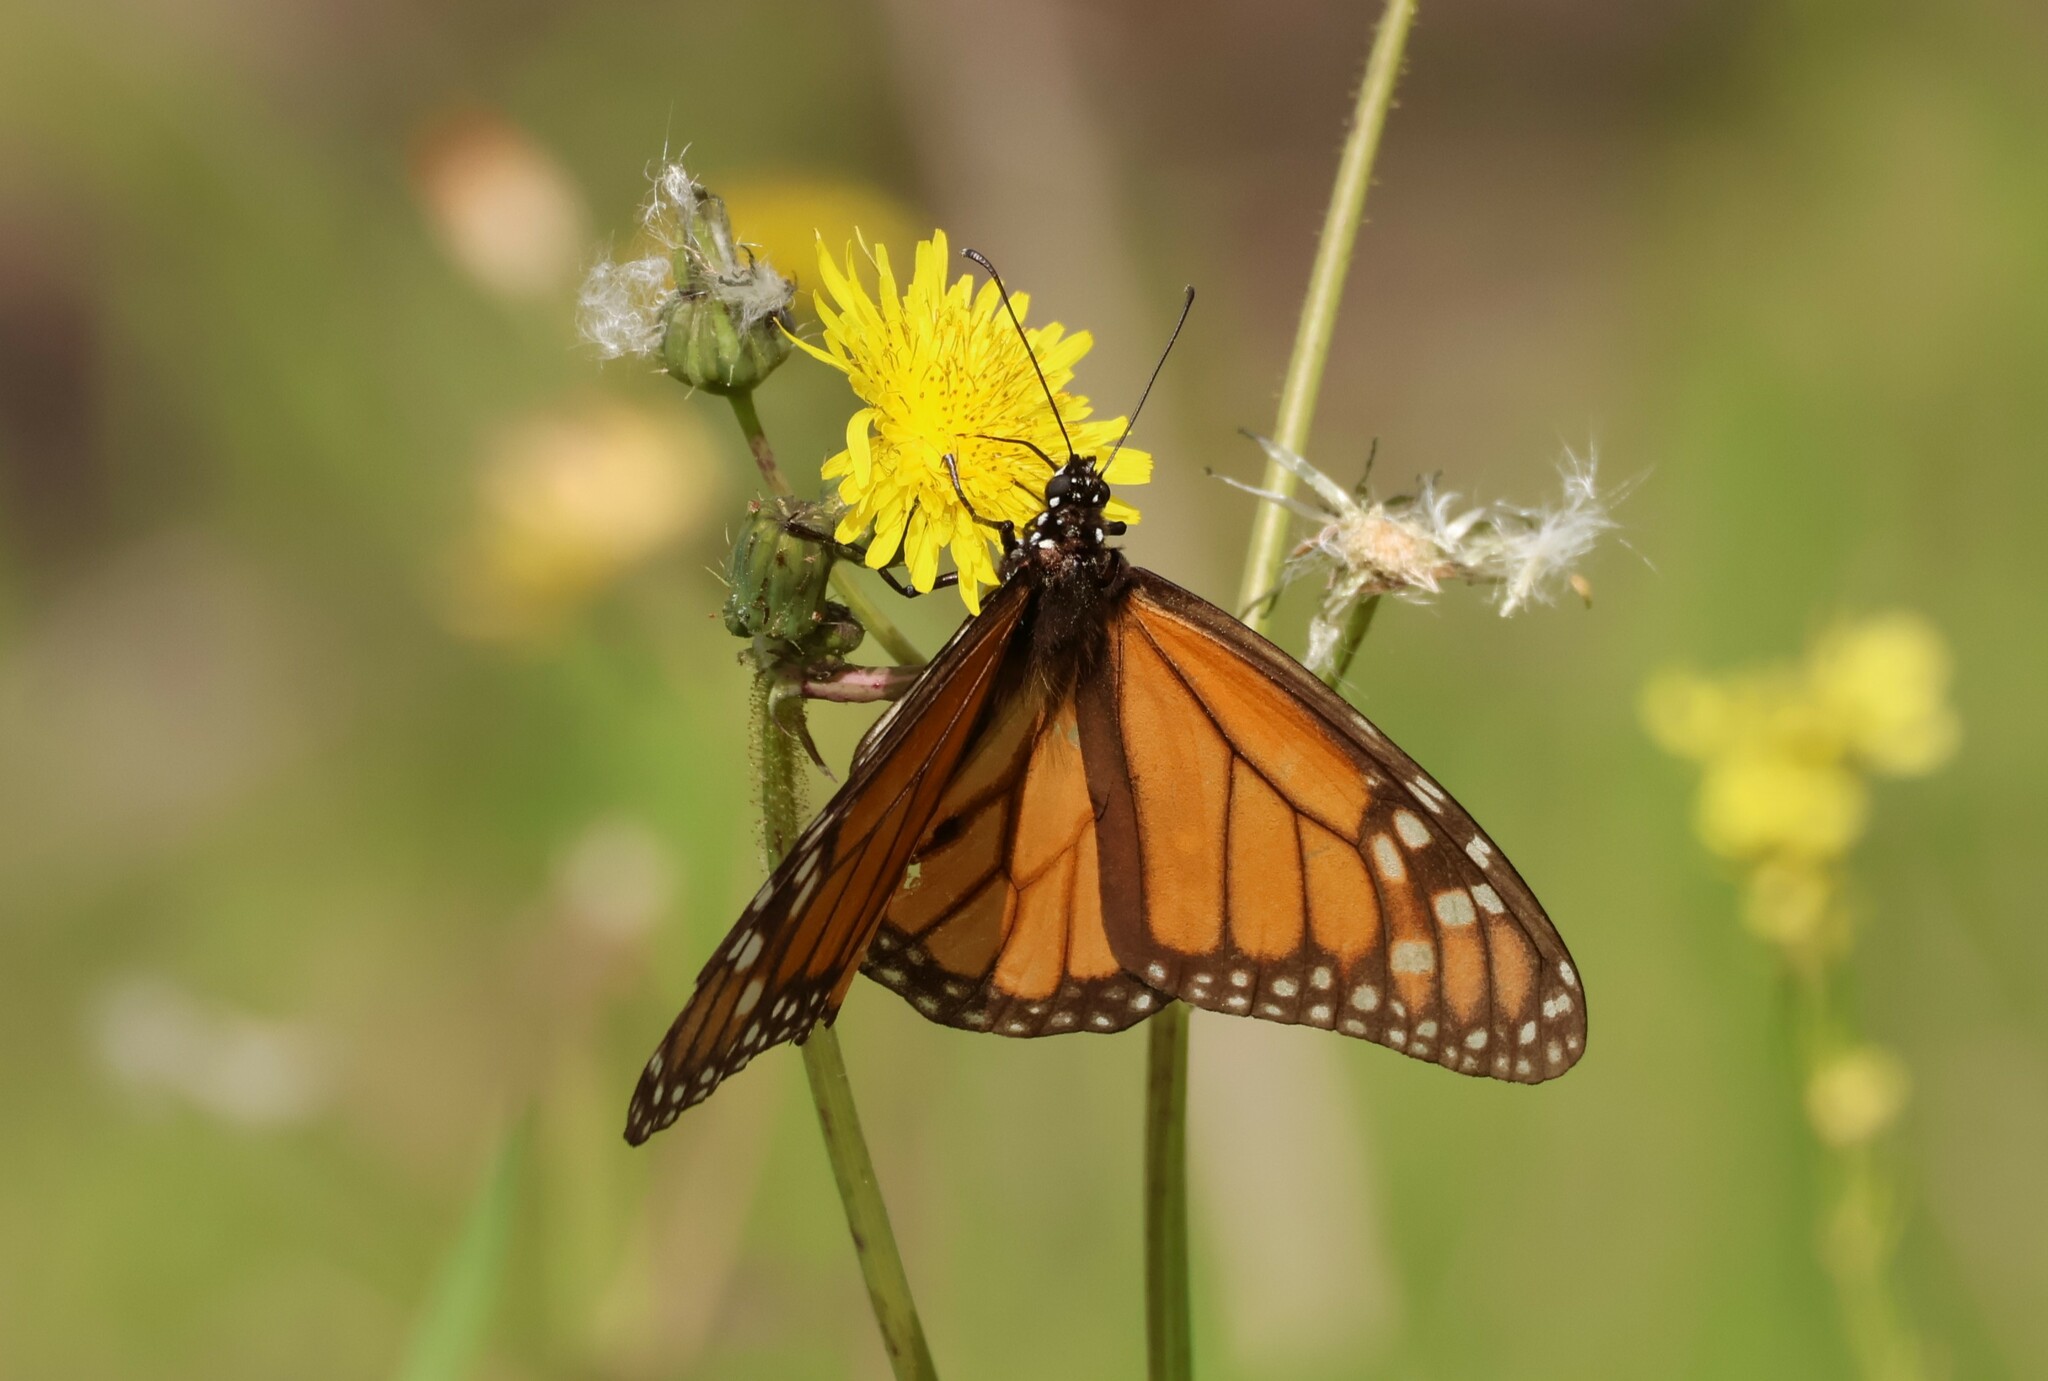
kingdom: Animalia
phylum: Arthropoda
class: Insecta
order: Lepidoptera
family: Nymphalidae
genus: Danaus
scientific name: Danaus plexippus
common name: Monarch
